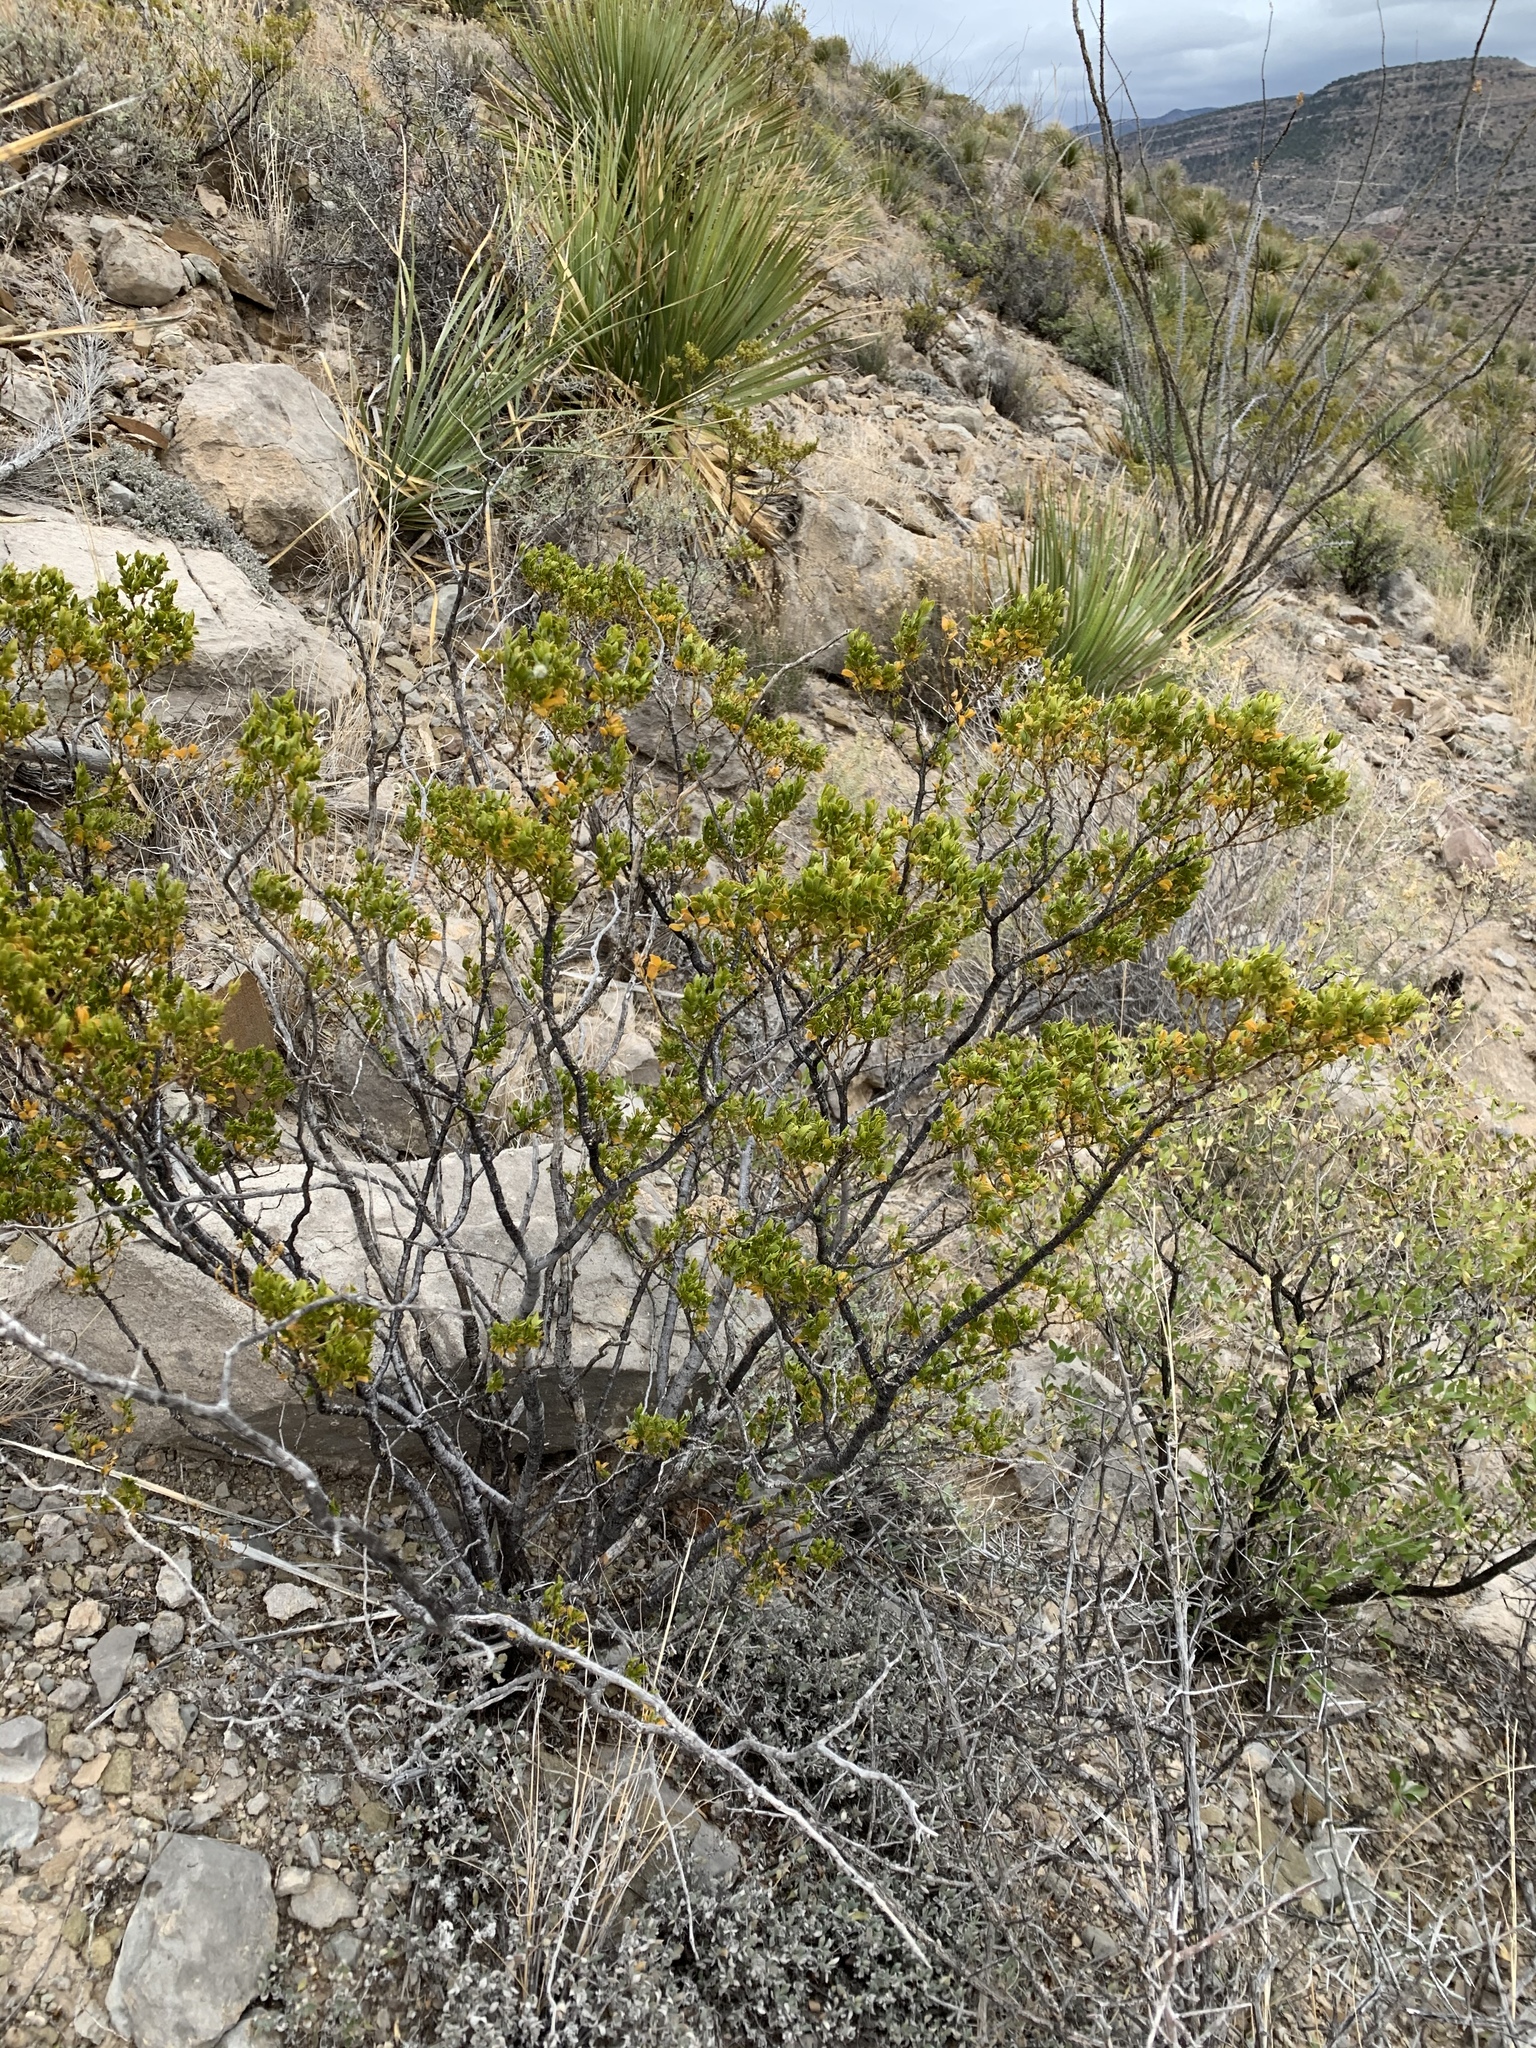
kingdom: Plantae
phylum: Tracheophyta
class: Magnoliopsida
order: Zygophyllales
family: Zygophyllaceae
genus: Larrea
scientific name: Larrea tridentata
